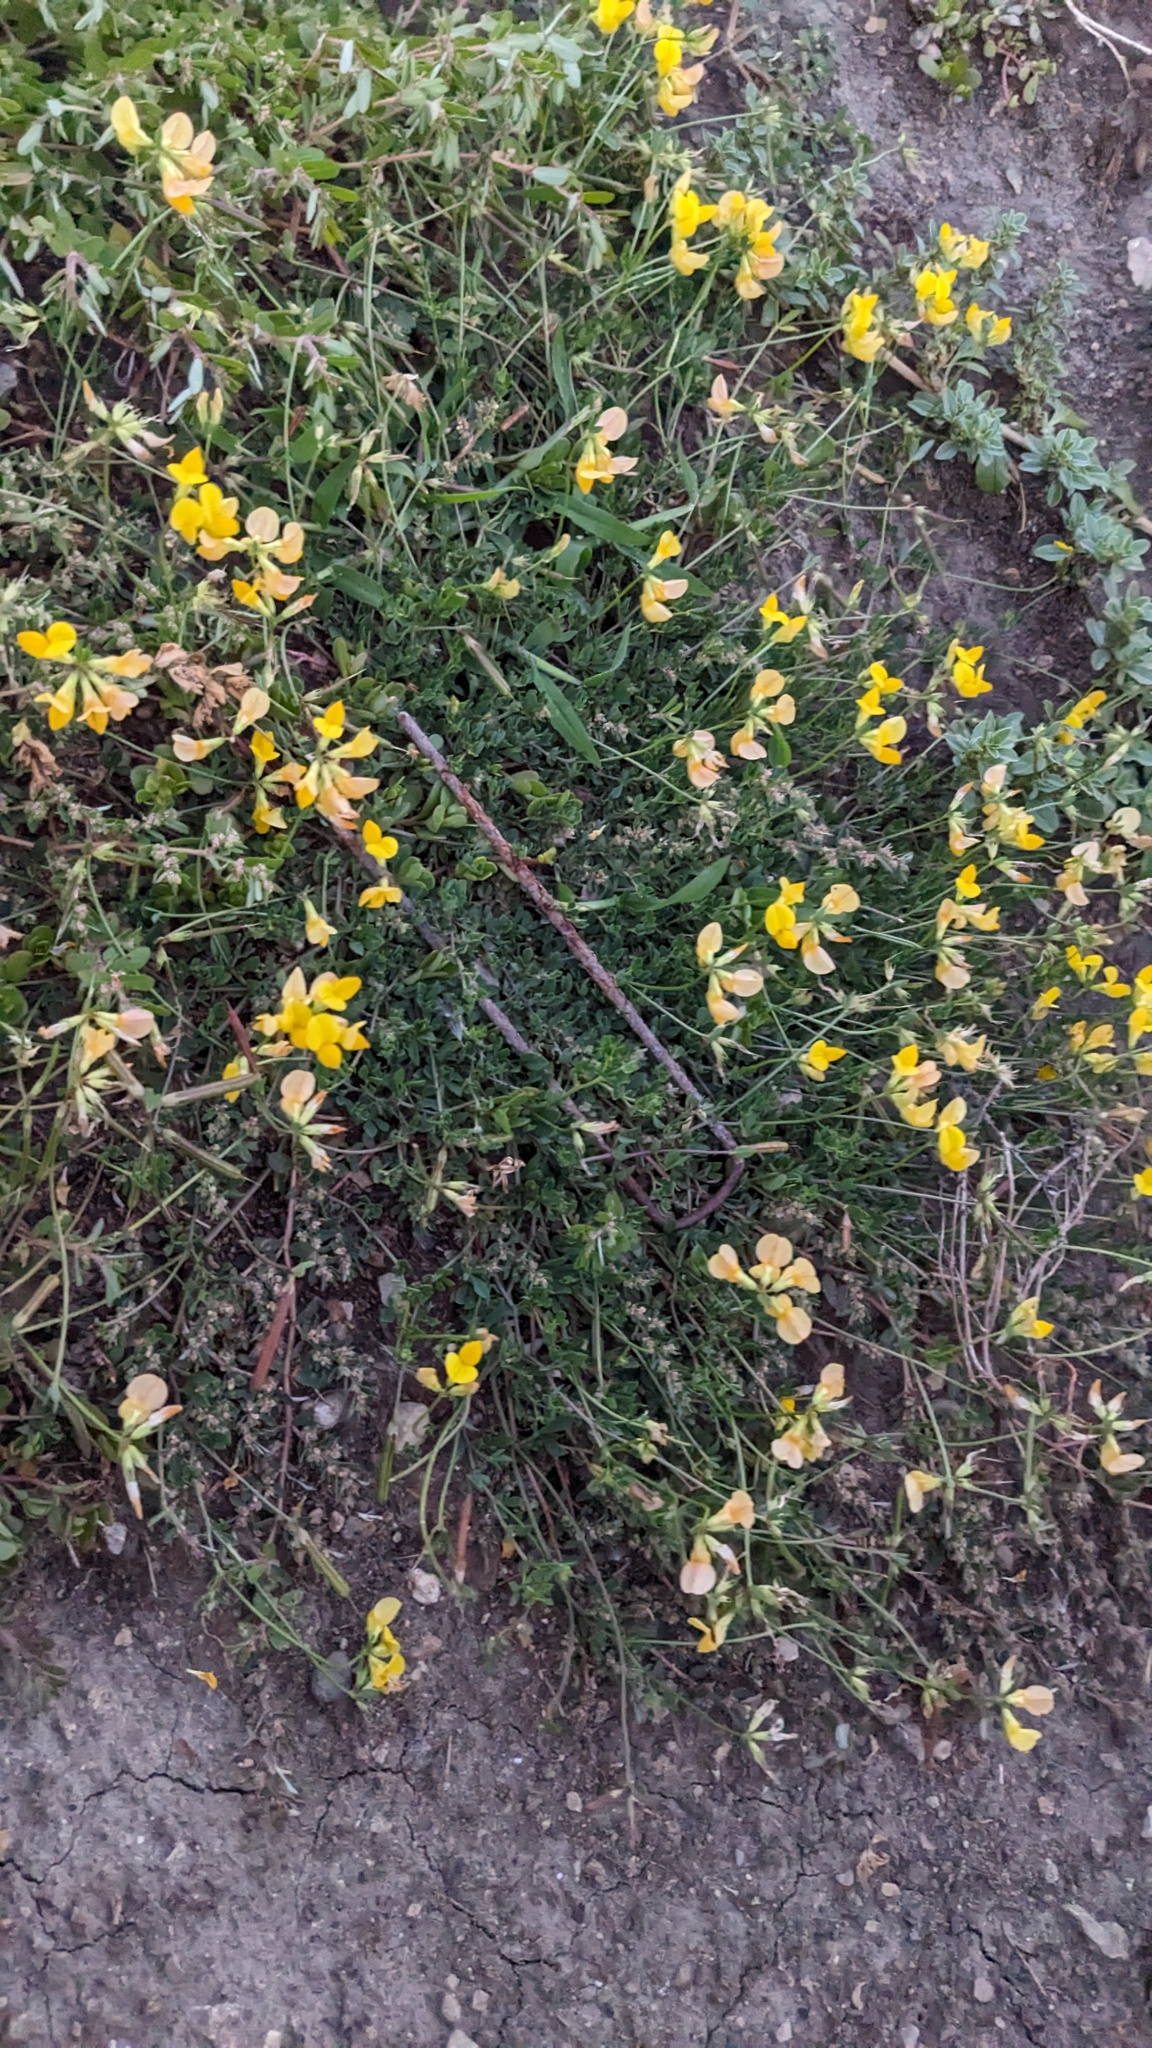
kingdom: Plantae
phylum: Tracheophyta
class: Magnoliopsida
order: Fabales
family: Fabaceae
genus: Lotus
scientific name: Lotus corniculatus
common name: Common bird's-foot-trefoil
